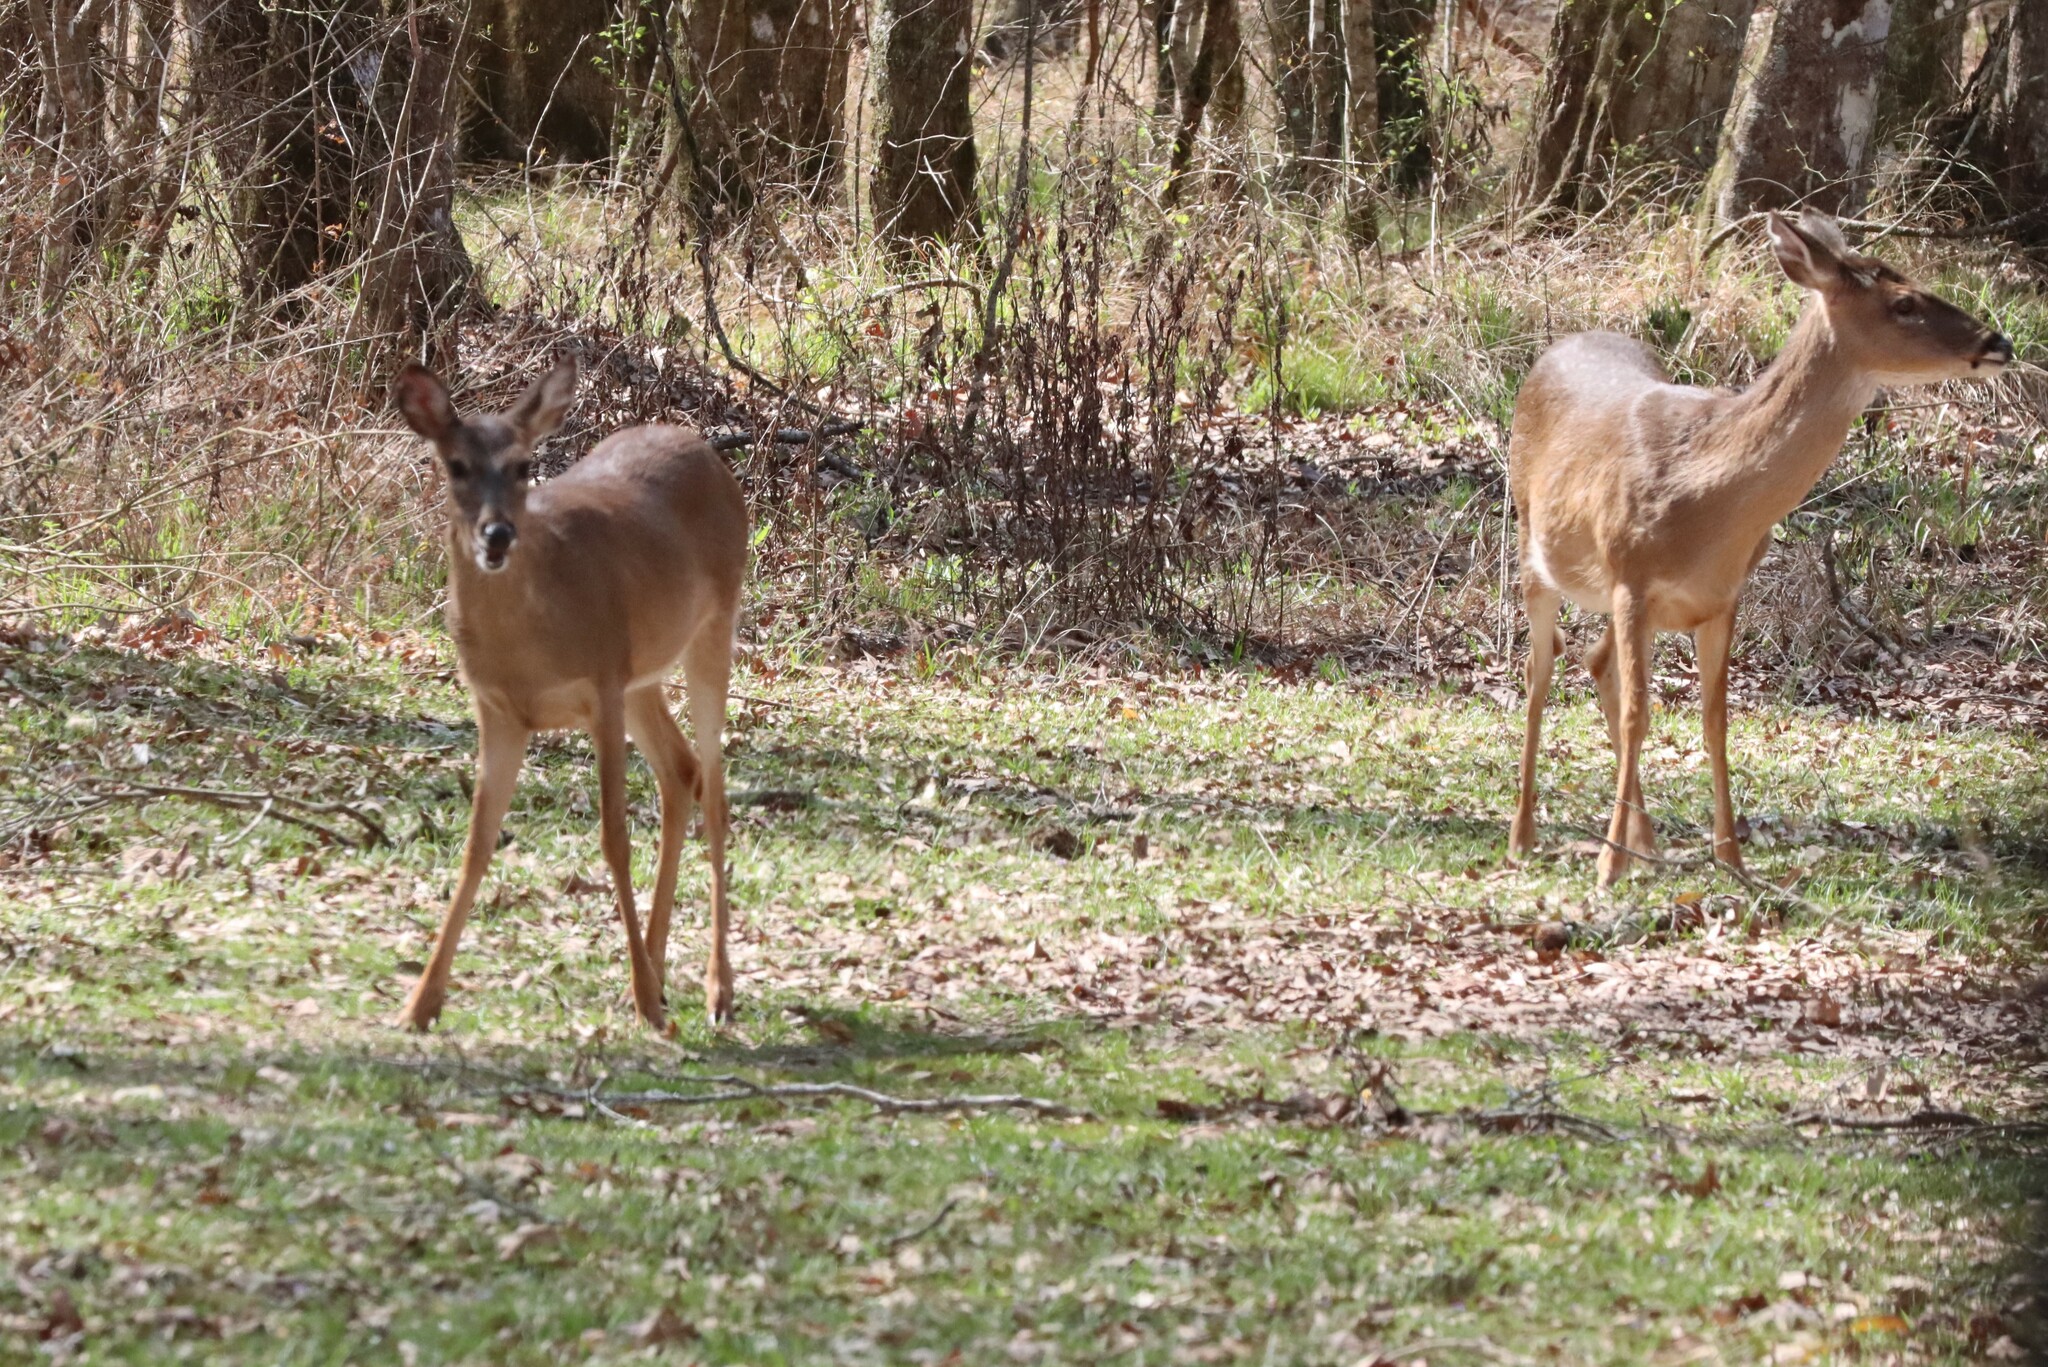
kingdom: Animalia
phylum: Chordata
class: Mammalia
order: Artiodactyla
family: Cervidae
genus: Odocoileus
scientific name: Odocoileus virginianus
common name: White-tailed deer
